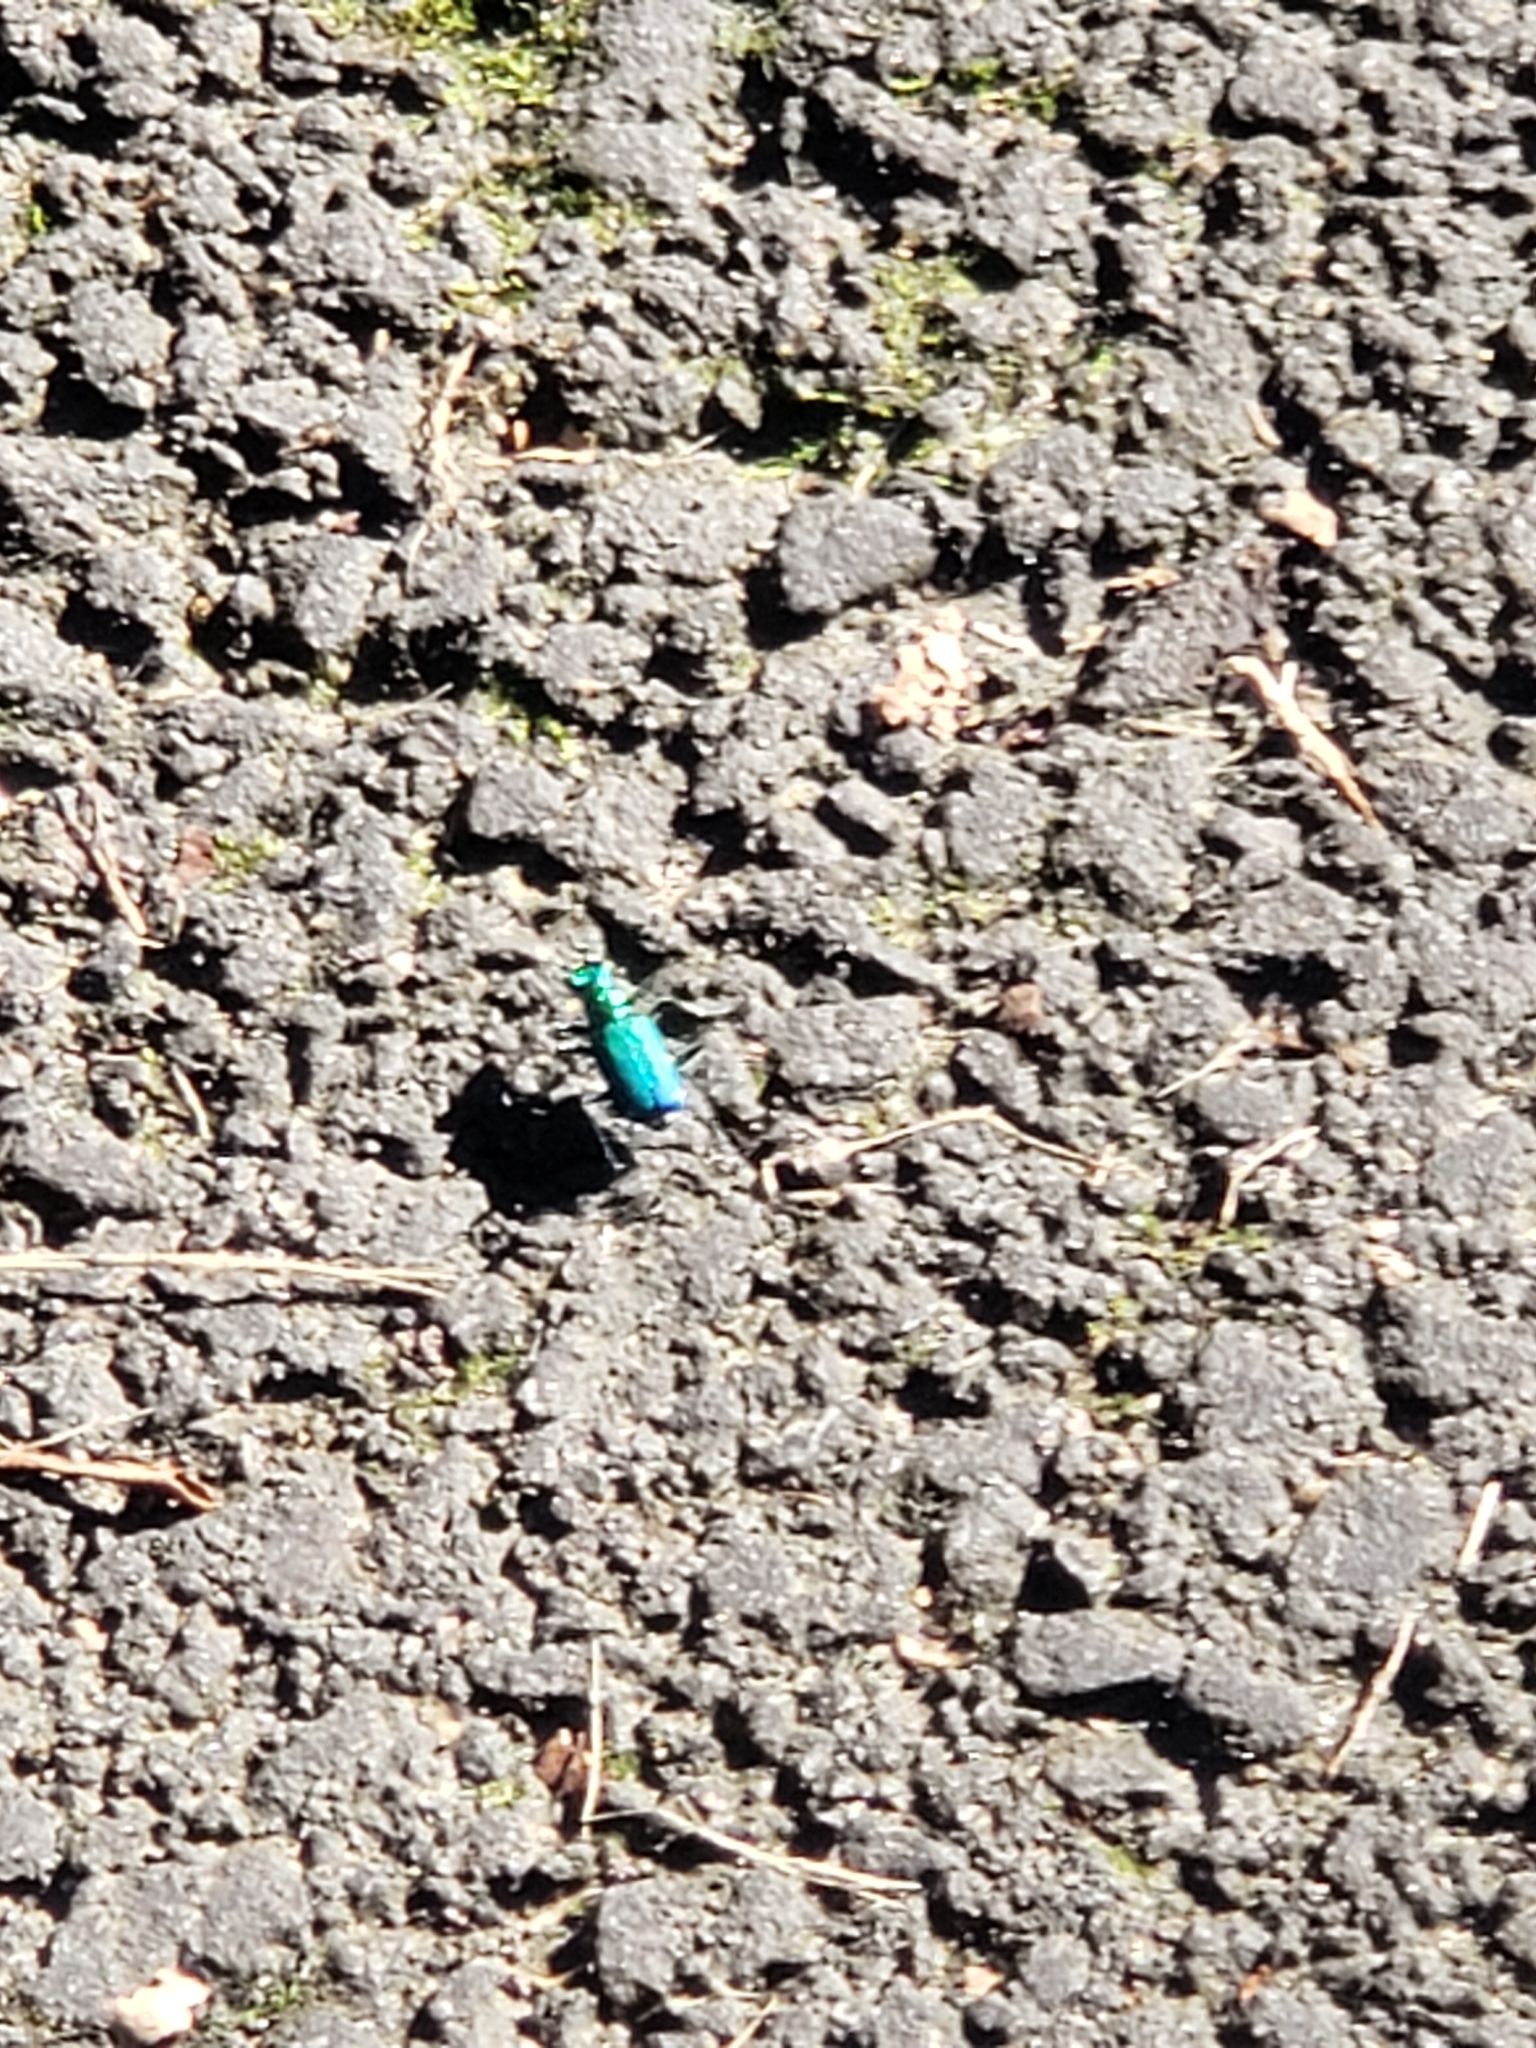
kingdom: Animalia
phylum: Arthropoda
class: Insecta
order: Coleoptera
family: Carabidae
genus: Cicindela
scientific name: Cicindela sexguttata
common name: Six-spotted tiger beetle
